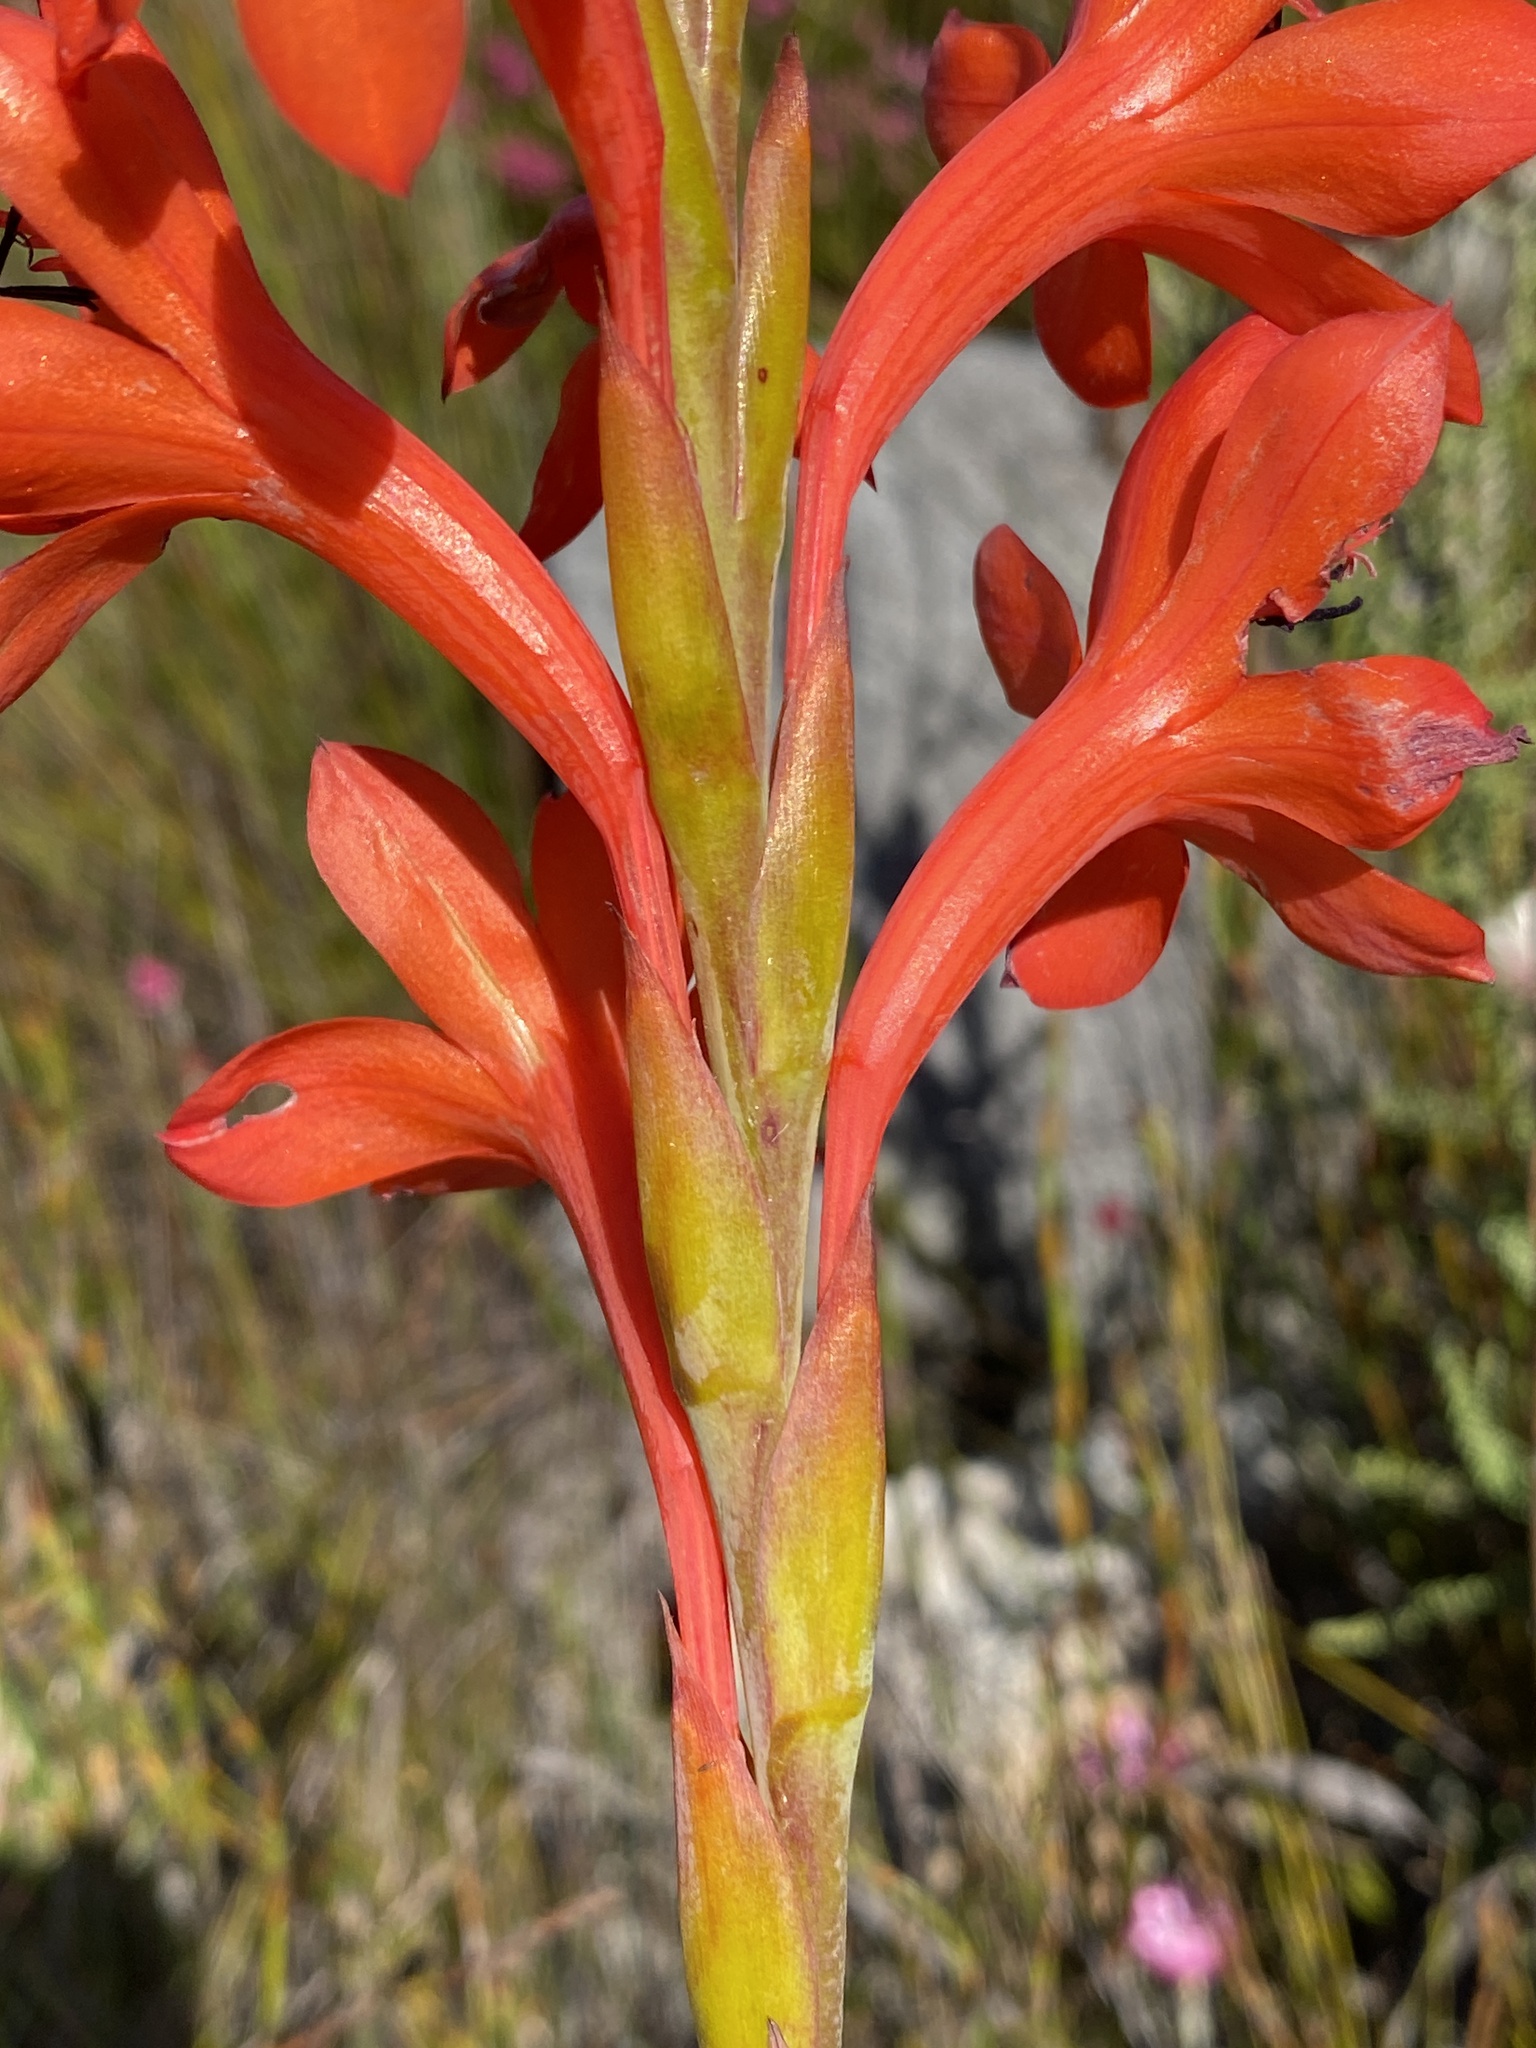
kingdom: Plantae
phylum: Tracheophyta
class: Liliopsida
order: Asparagales
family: Iridaceae
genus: Watsonia
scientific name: Watsonia schlechteri
